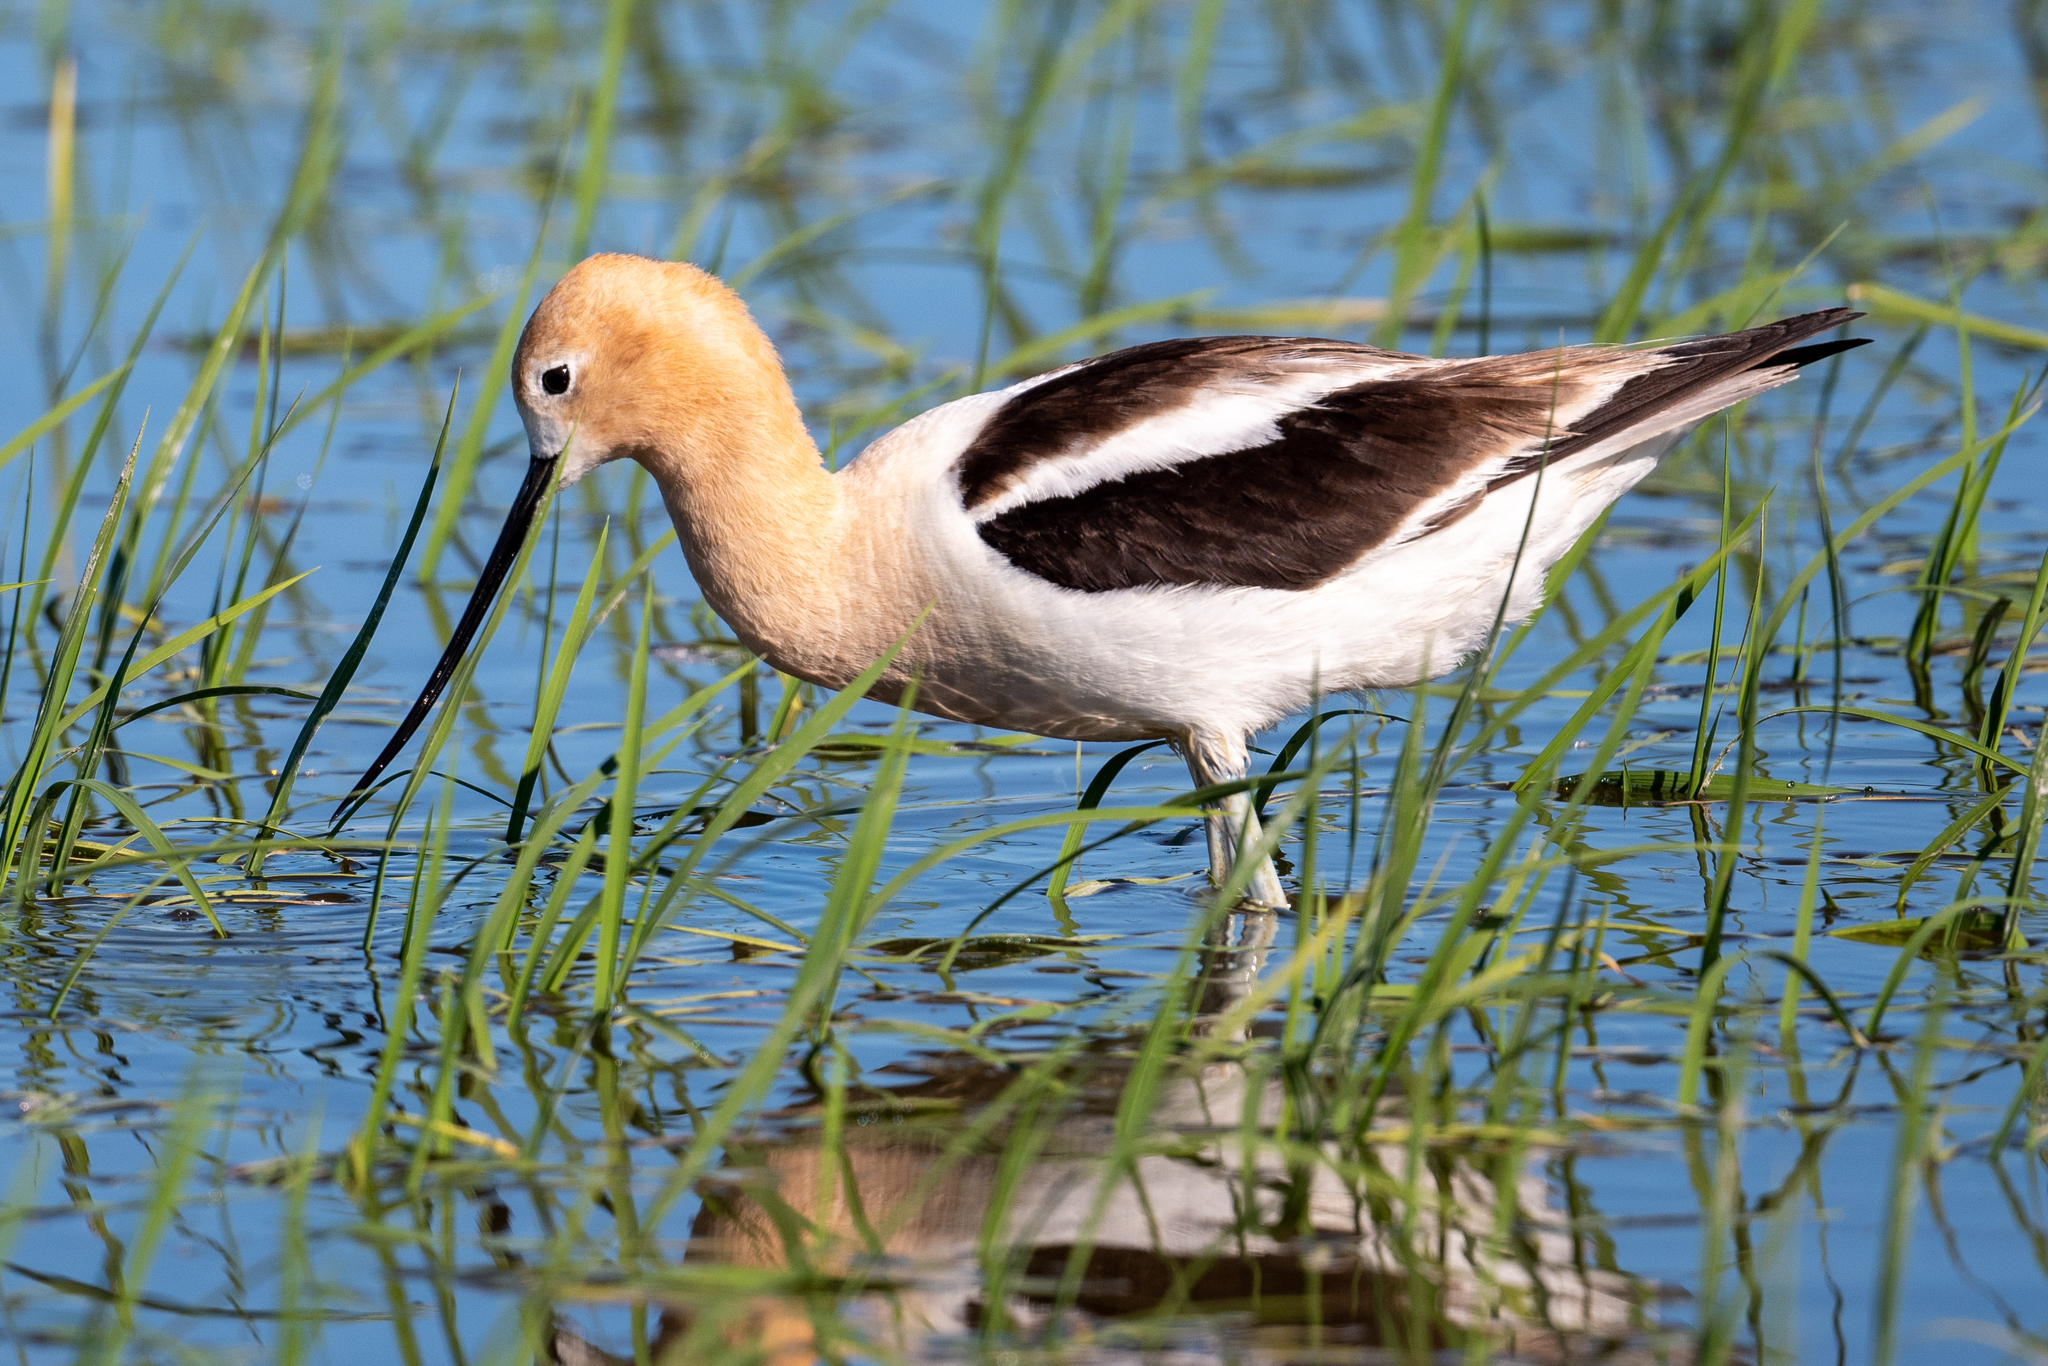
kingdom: Animalia
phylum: Chordata
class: Aves
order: Charadriiformes
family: Recurvirostridae
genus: Recurvirostra
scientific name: Recurvirostra americana
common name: American avocet
